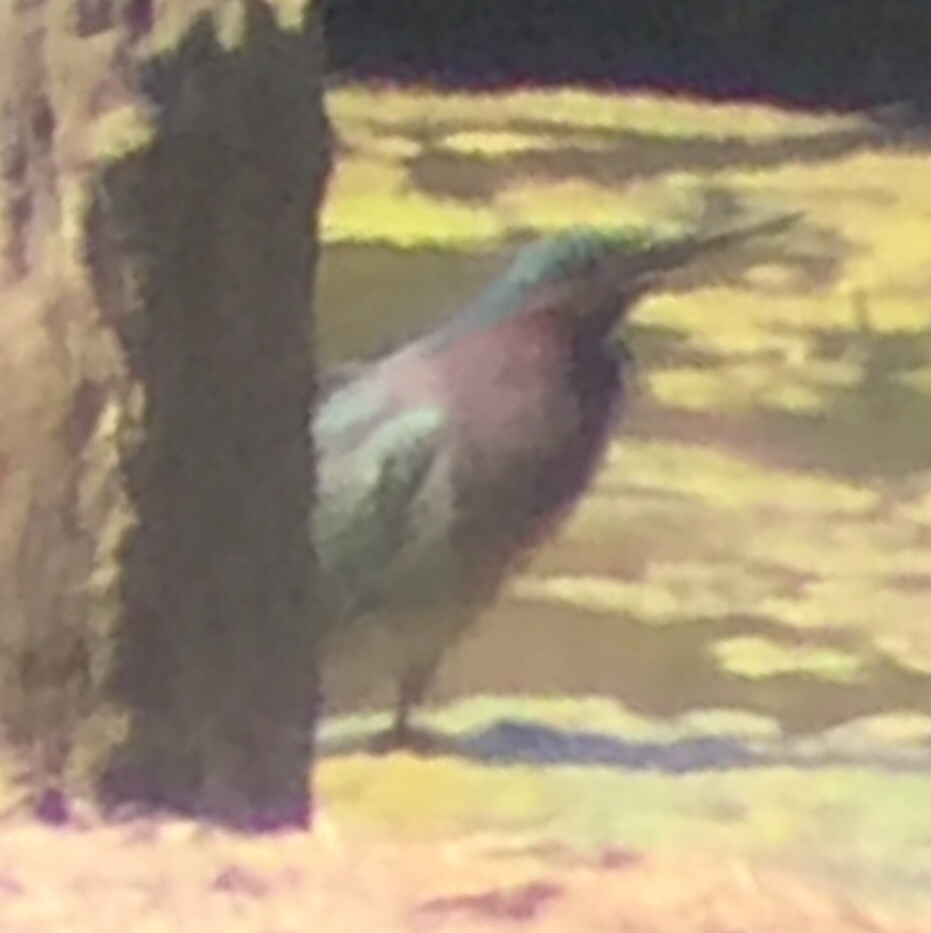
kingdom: Animalia
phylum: Chordata
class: Aves
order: Pelecaniformes
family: Ardeidae
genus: Butorides
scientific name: Butorides virescens
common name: Green heron
